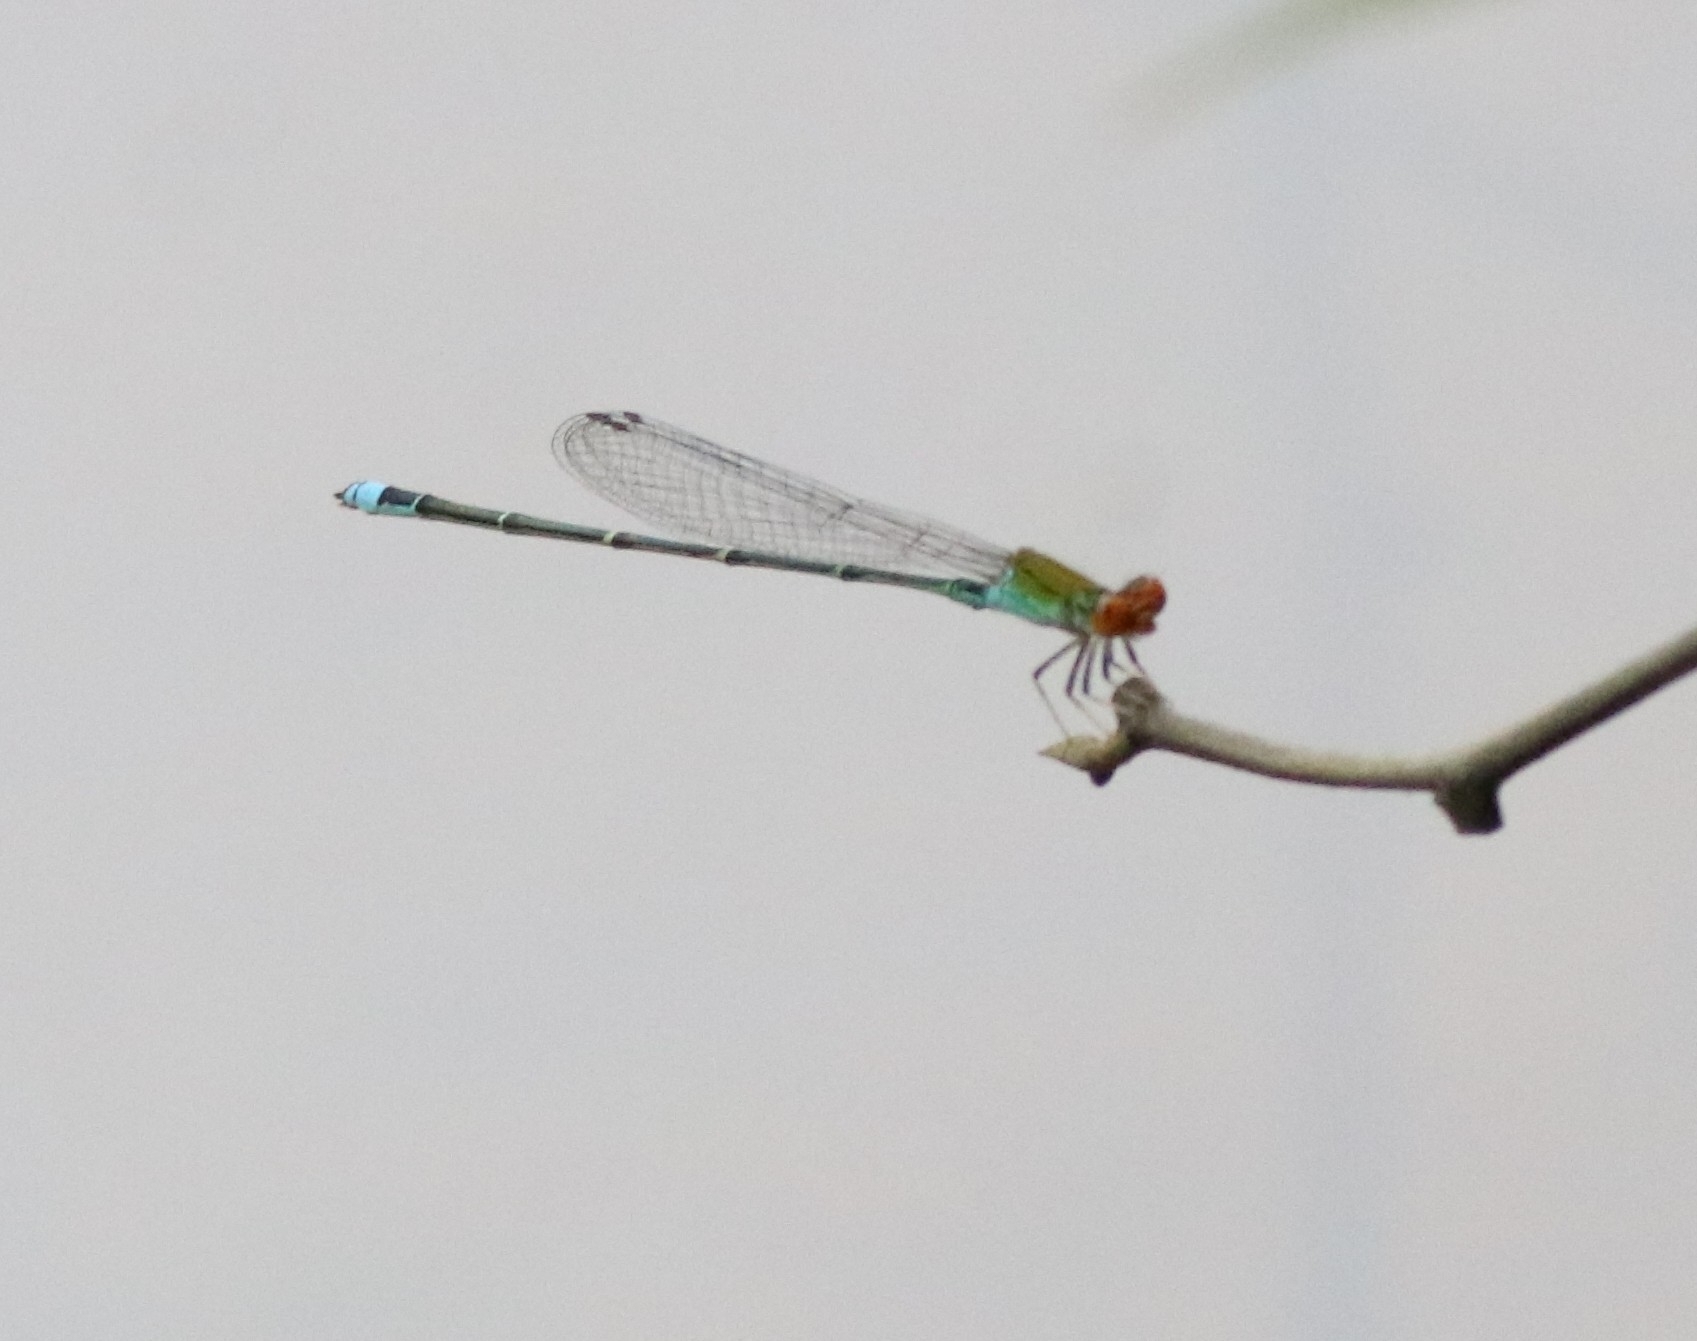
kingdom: Animalia
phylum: Arthropoda
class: Insecta
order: Odonata
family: Coenagrionidae
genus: Pseudagrion
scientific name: Pseudagrion rubriceps
